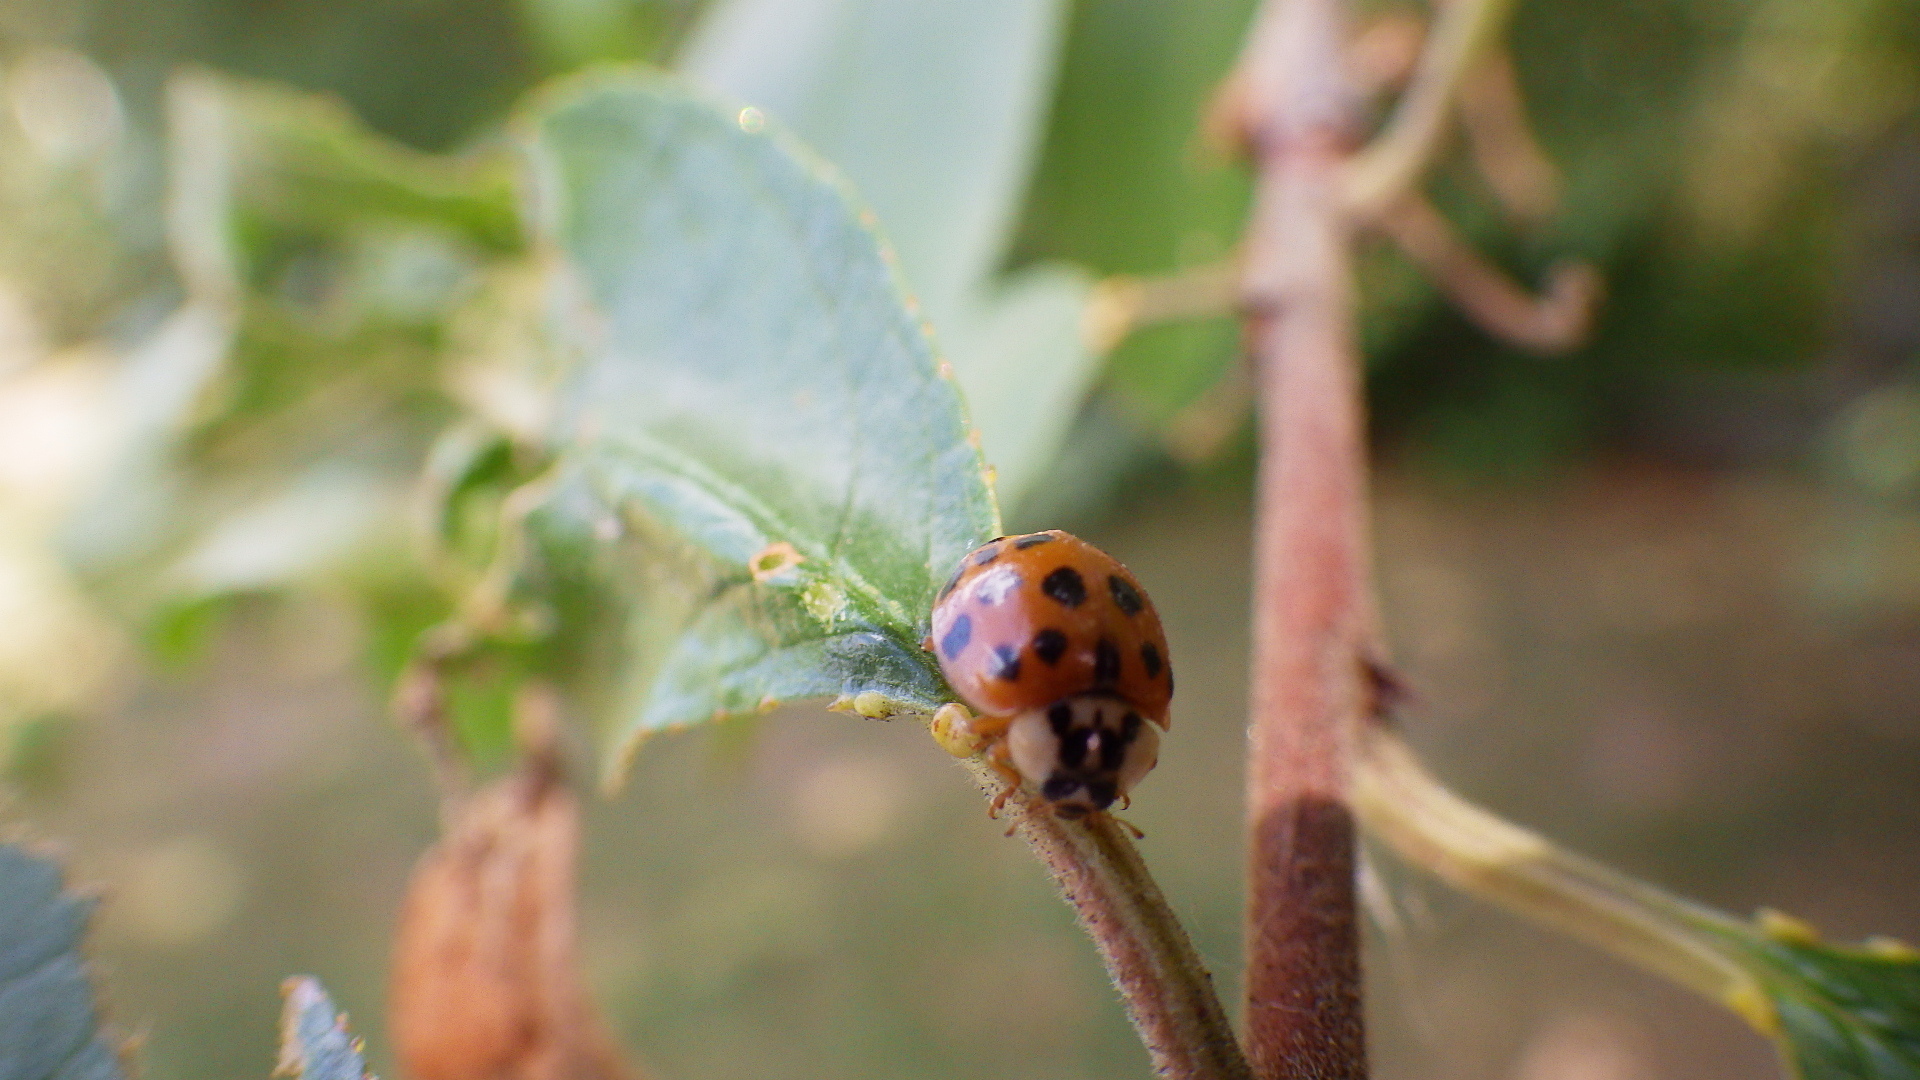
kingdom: Animalia
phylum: Arthropoda
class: Insecta
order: Coleoptera
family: Coccinellidae
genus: Harmonia
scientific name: Harmonia axyridis
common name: Harlequin ladybird
